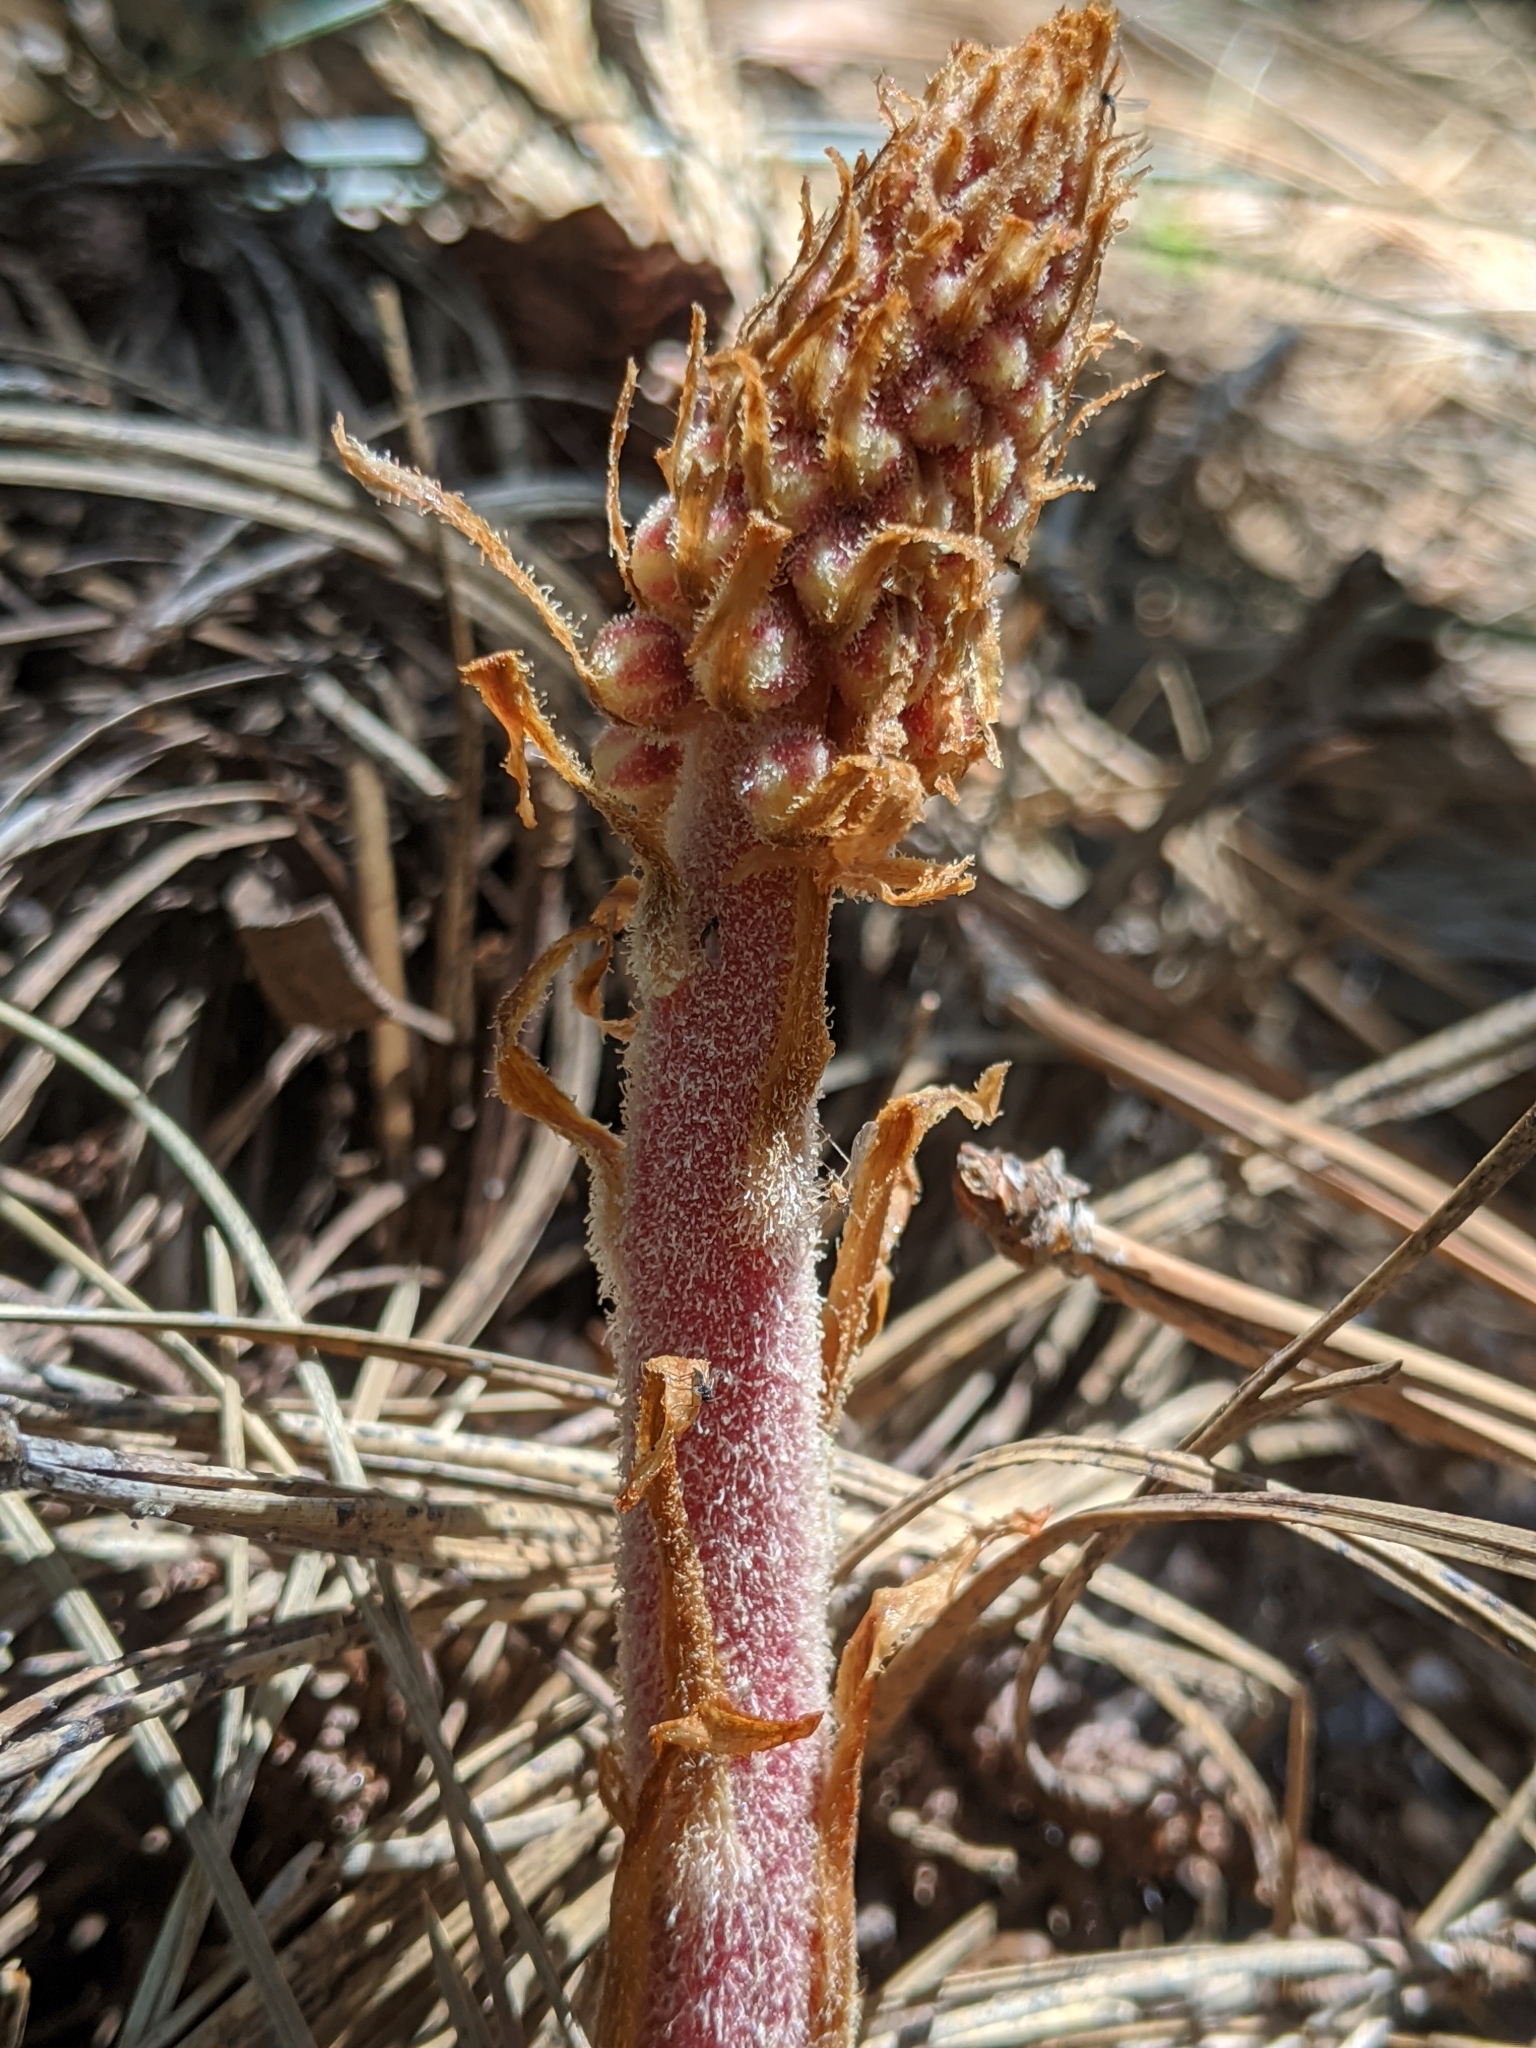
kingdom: Plantae
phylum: Tracheophyta
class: Magnoliopsida
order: Ericales
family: Ericaceae
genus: Pterospora
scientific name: Pterospora andromedea
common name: Giant bird's-nest
